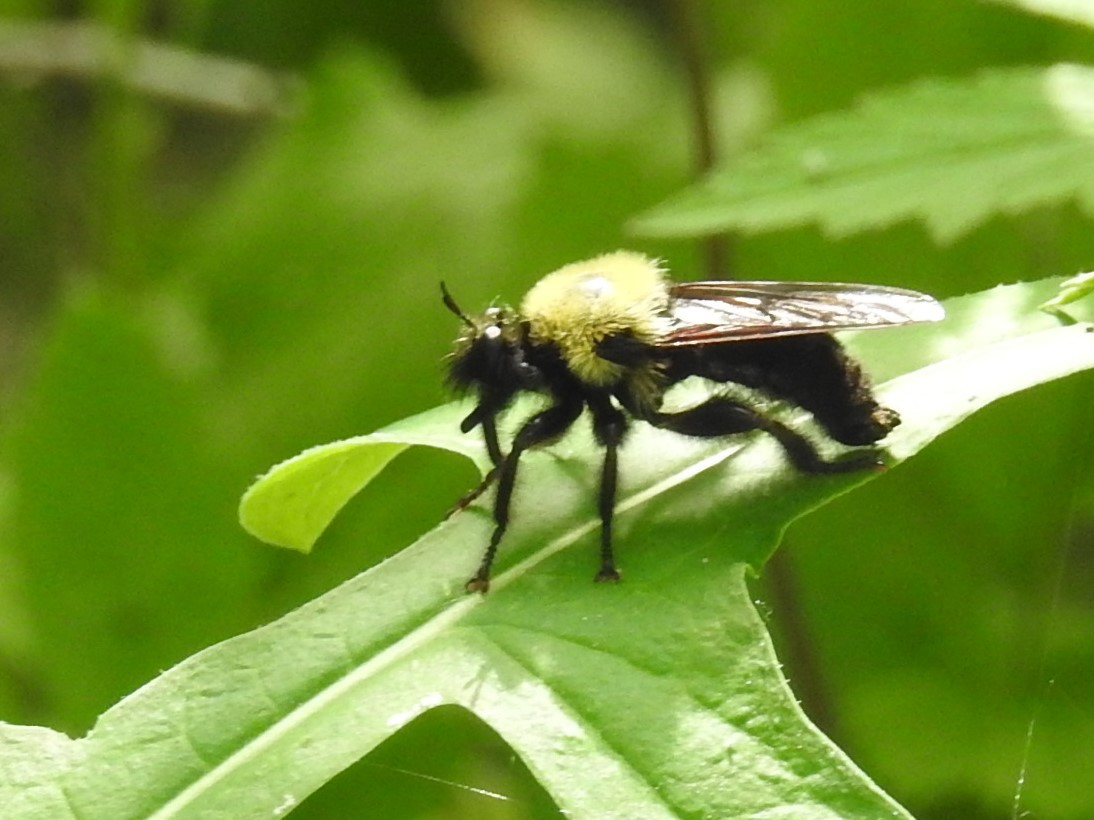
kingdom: Animalia
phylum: Arthropoda
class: Insecta
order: Diptera
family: Asilidae
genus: Laphria
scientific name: Laphria thoracica
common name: Bumble bee mimic robber fly
